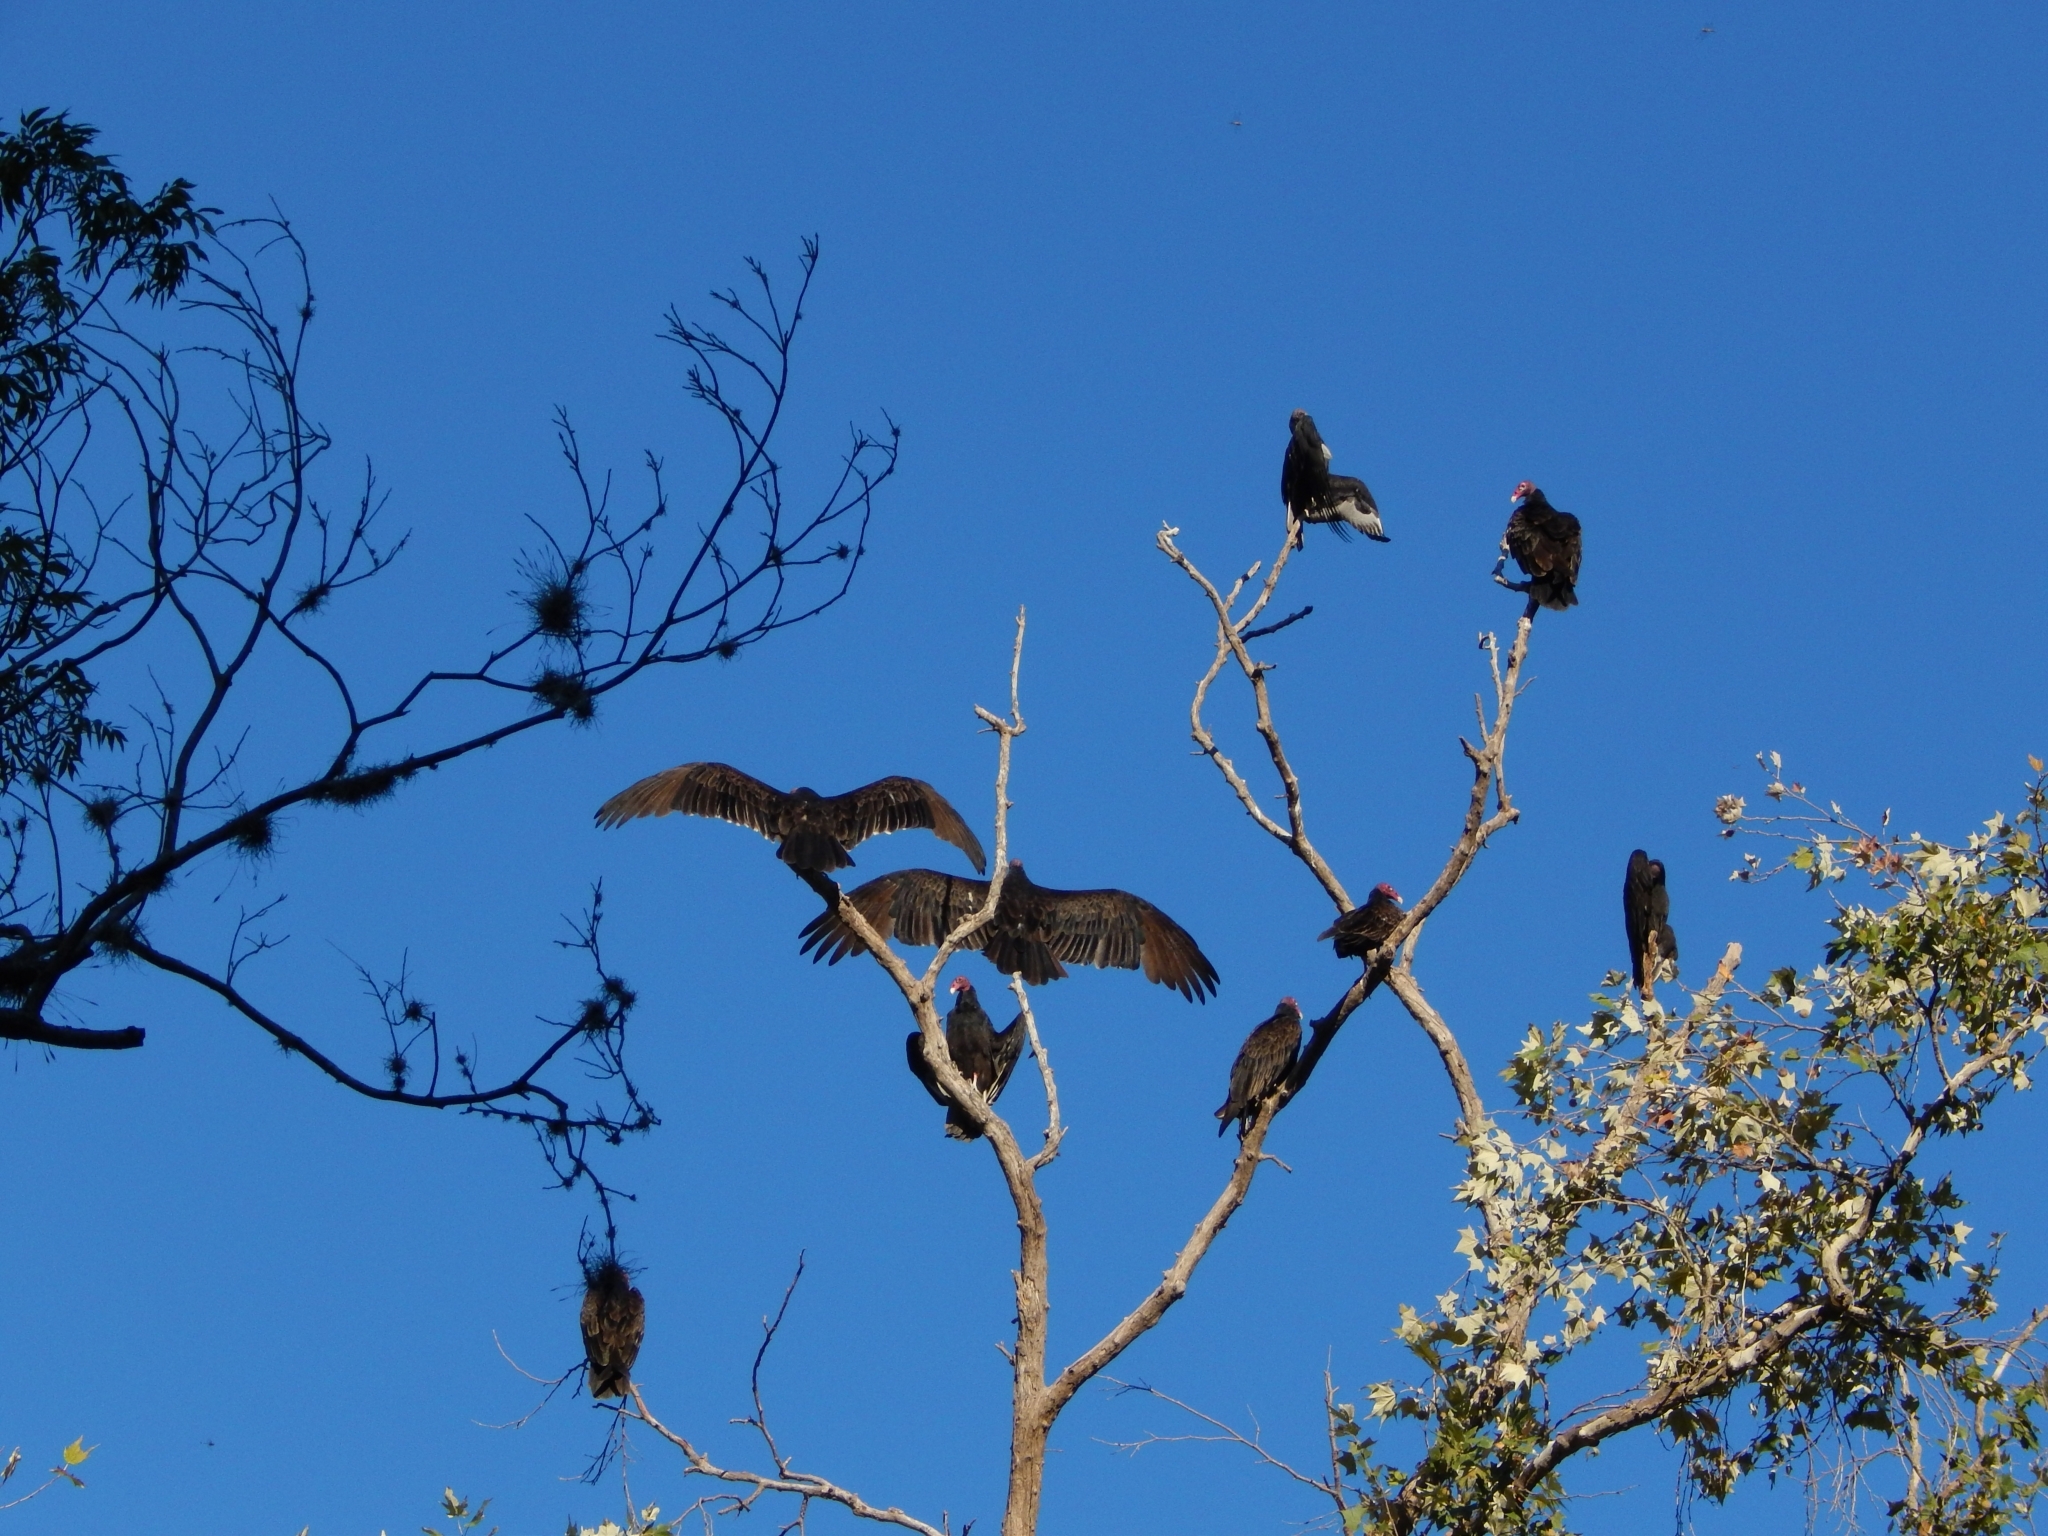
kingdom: Animalia
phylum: Chordata
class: Aves
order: Accipitriformes
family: Cathartidae
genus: Cathartes
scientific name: Cathartes aura
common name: Turkey vulture
